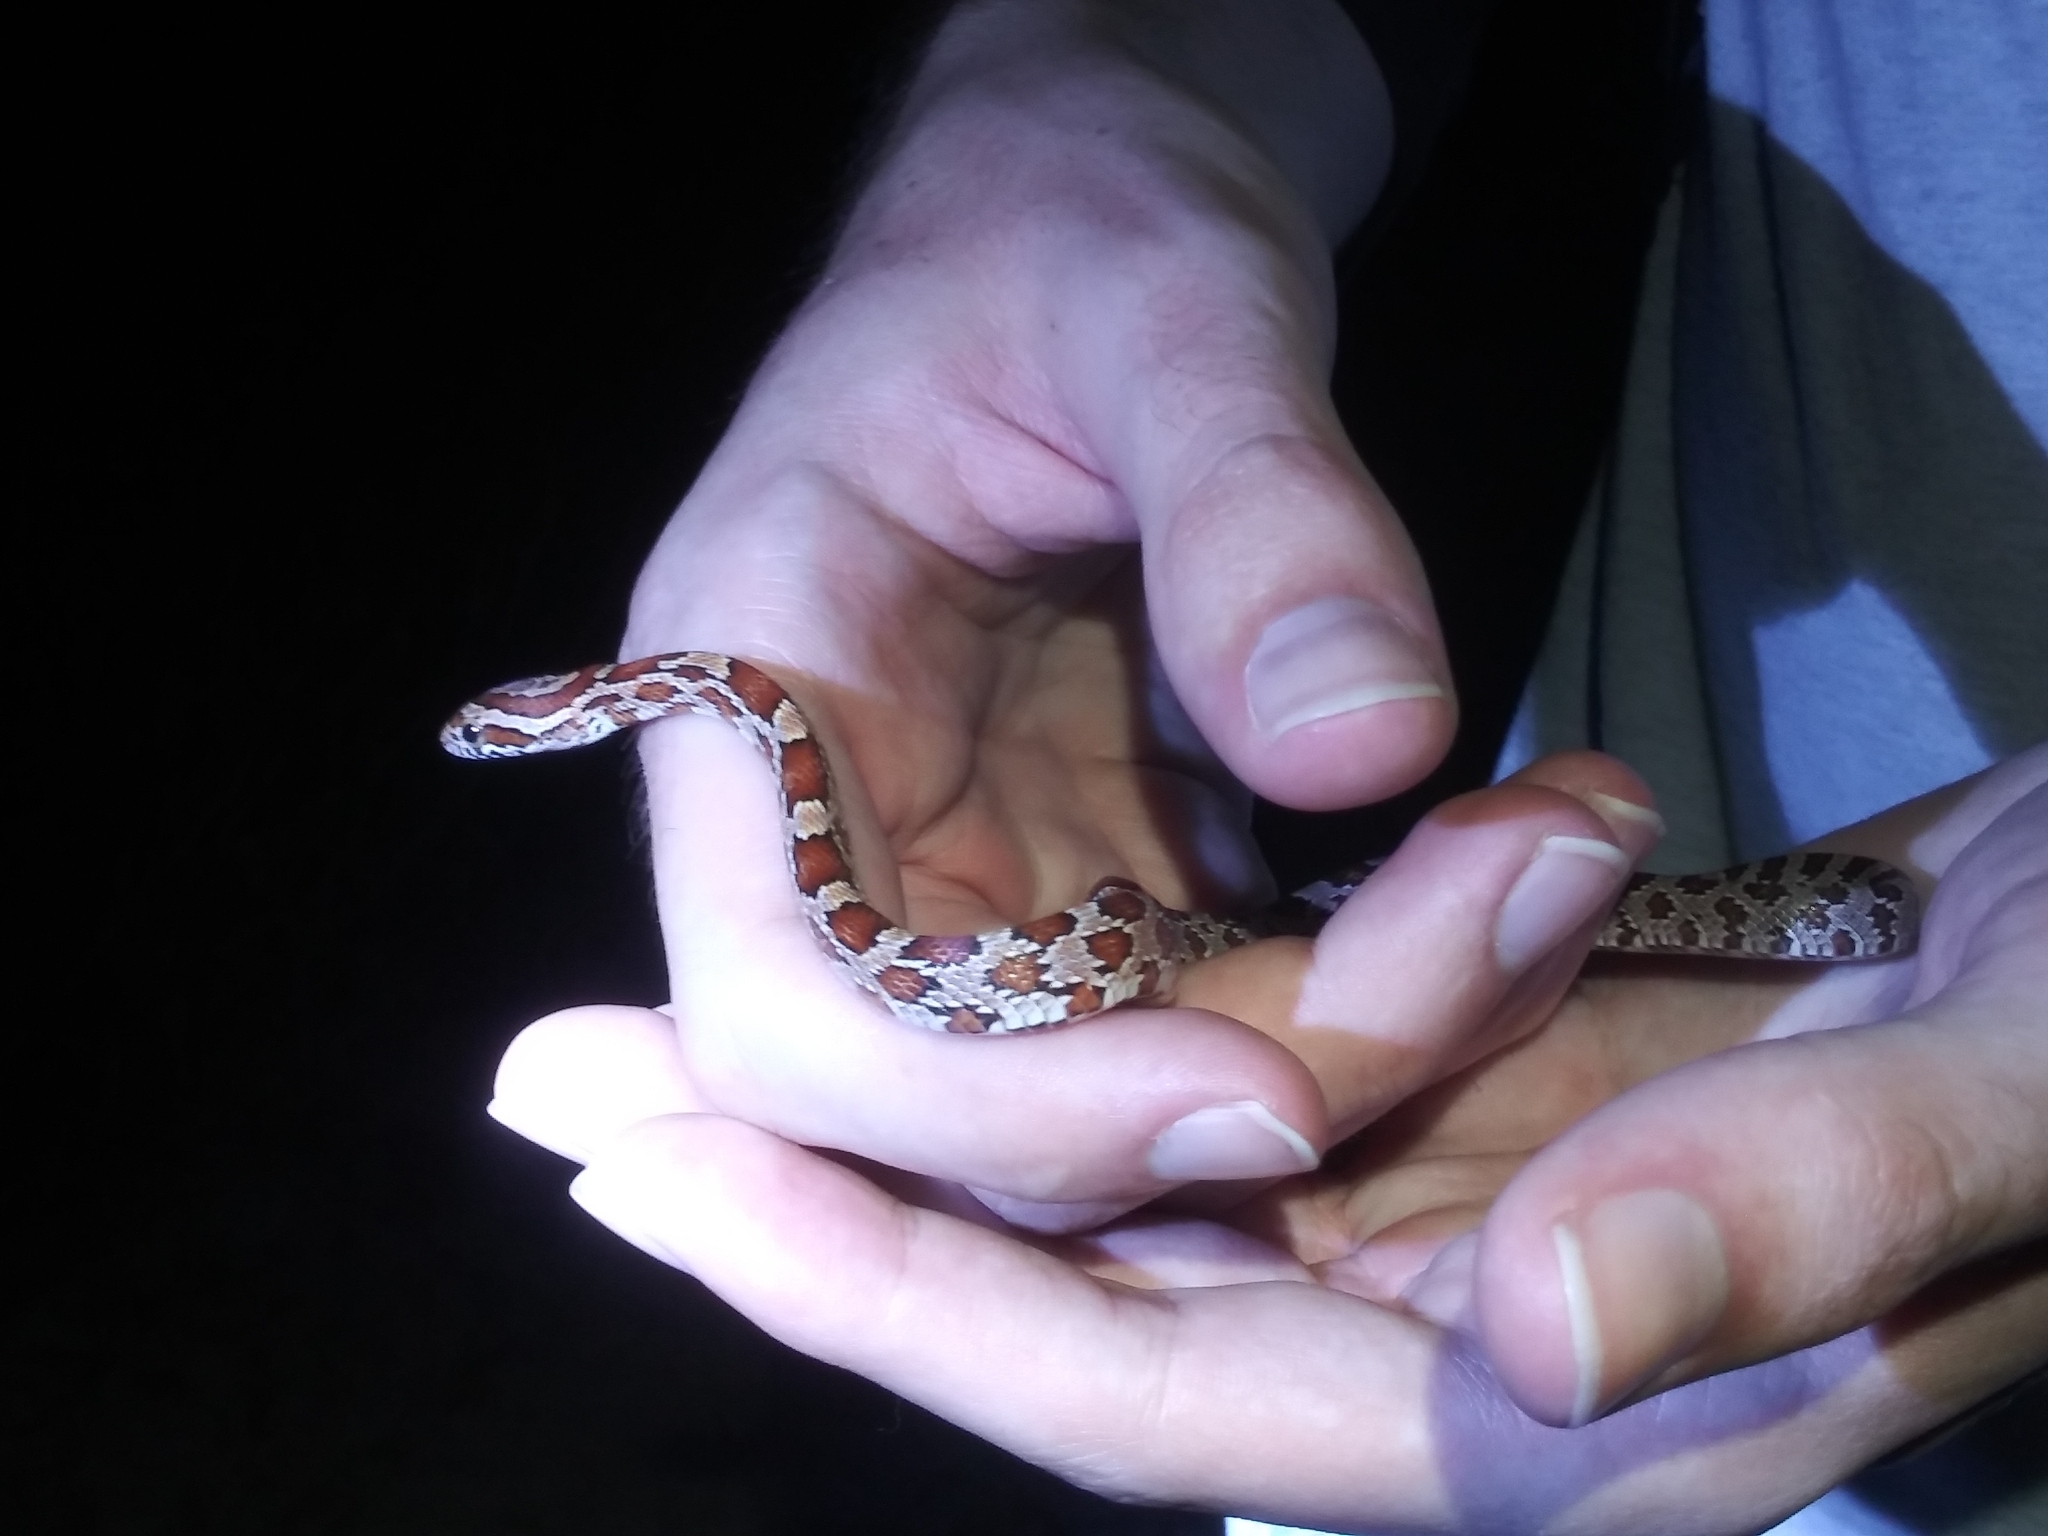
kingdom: Animalia
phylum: Chordata
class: Squamata
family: Colubridae
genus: Pantherophis
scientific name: Pantherophis guttatus
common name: Red cornsnake
